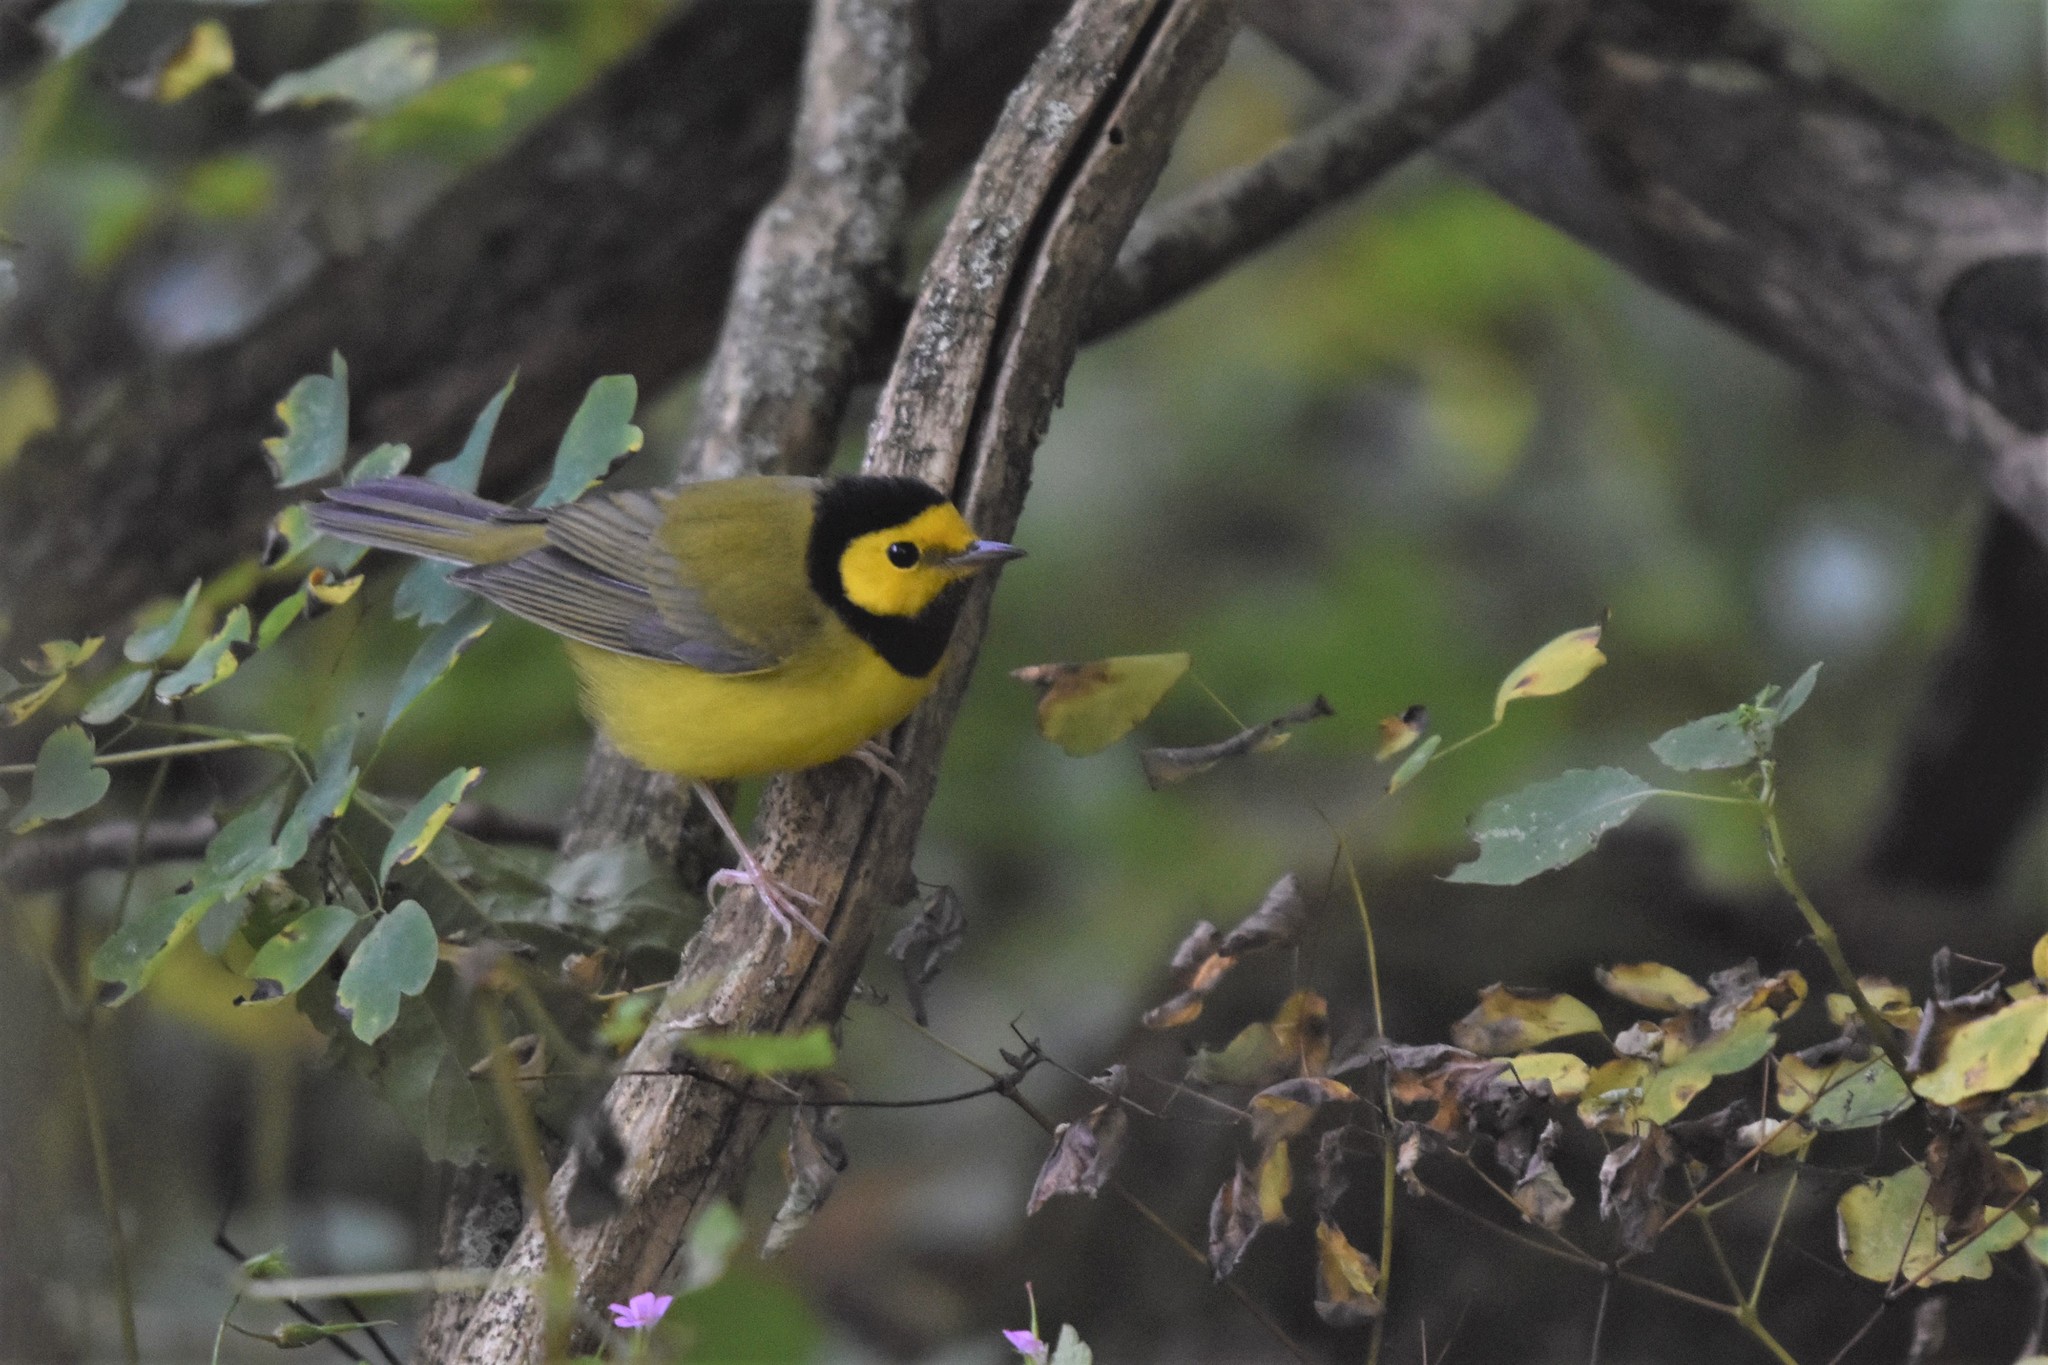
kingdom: Animalia
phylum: Chordata
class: Aves
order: Passeriformes
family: Parulidae
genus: Setophaga
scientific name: Setophaga citrina
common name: Hooded warbler
